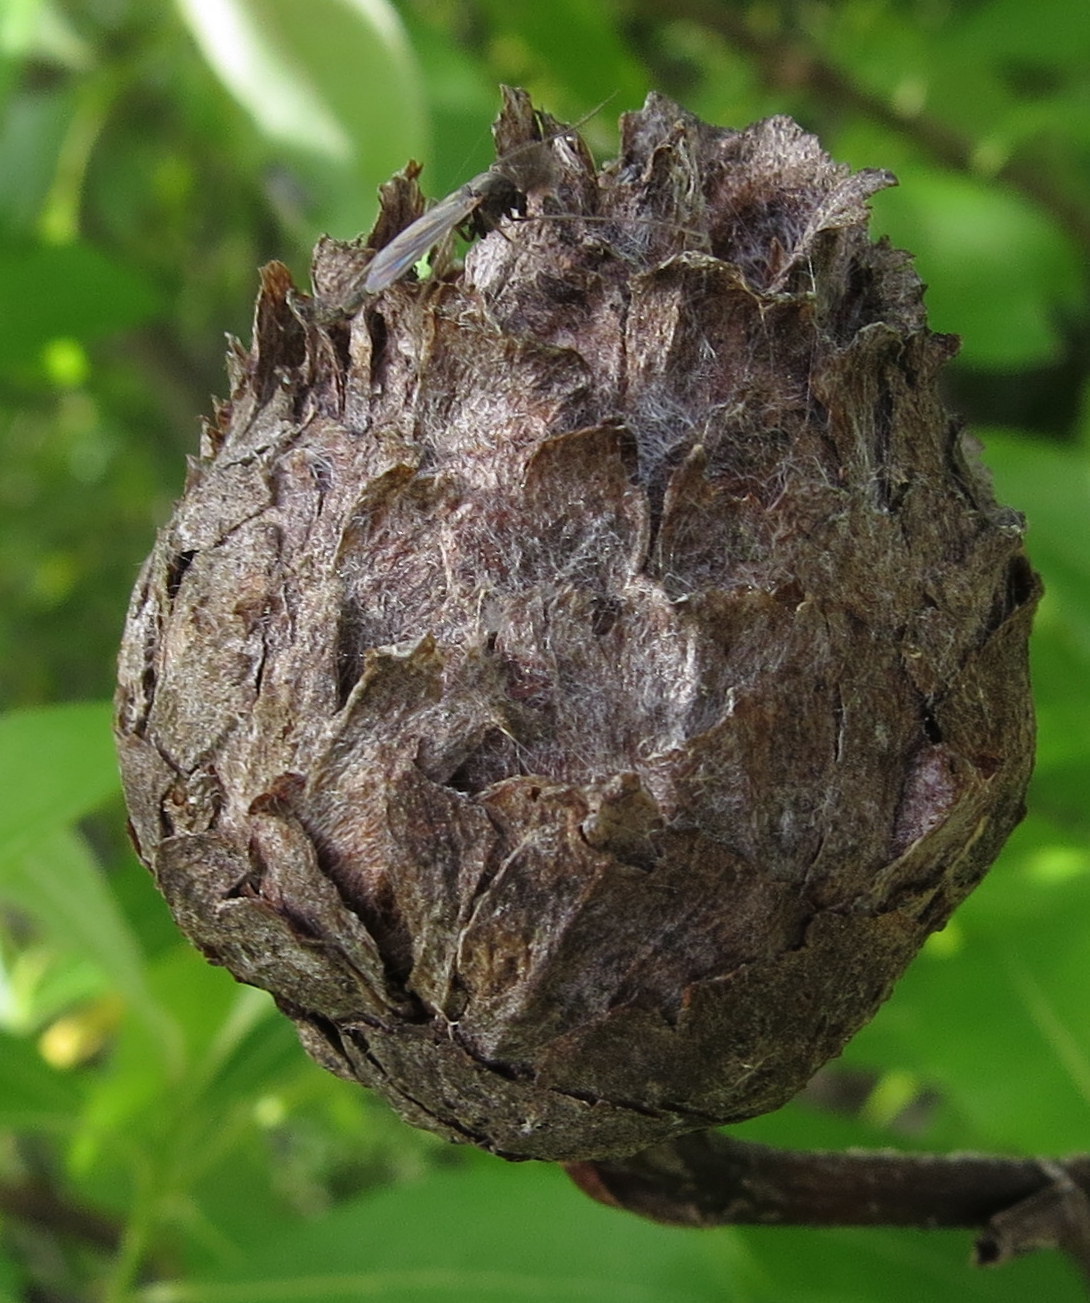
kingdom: Animalia
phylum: Arthropoda
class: Insecta
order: Diptera
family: Cecidomyiidae
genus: Rabdophaga
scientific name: Rabdophaga strobiloides
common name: Willow pinecone gall midge
